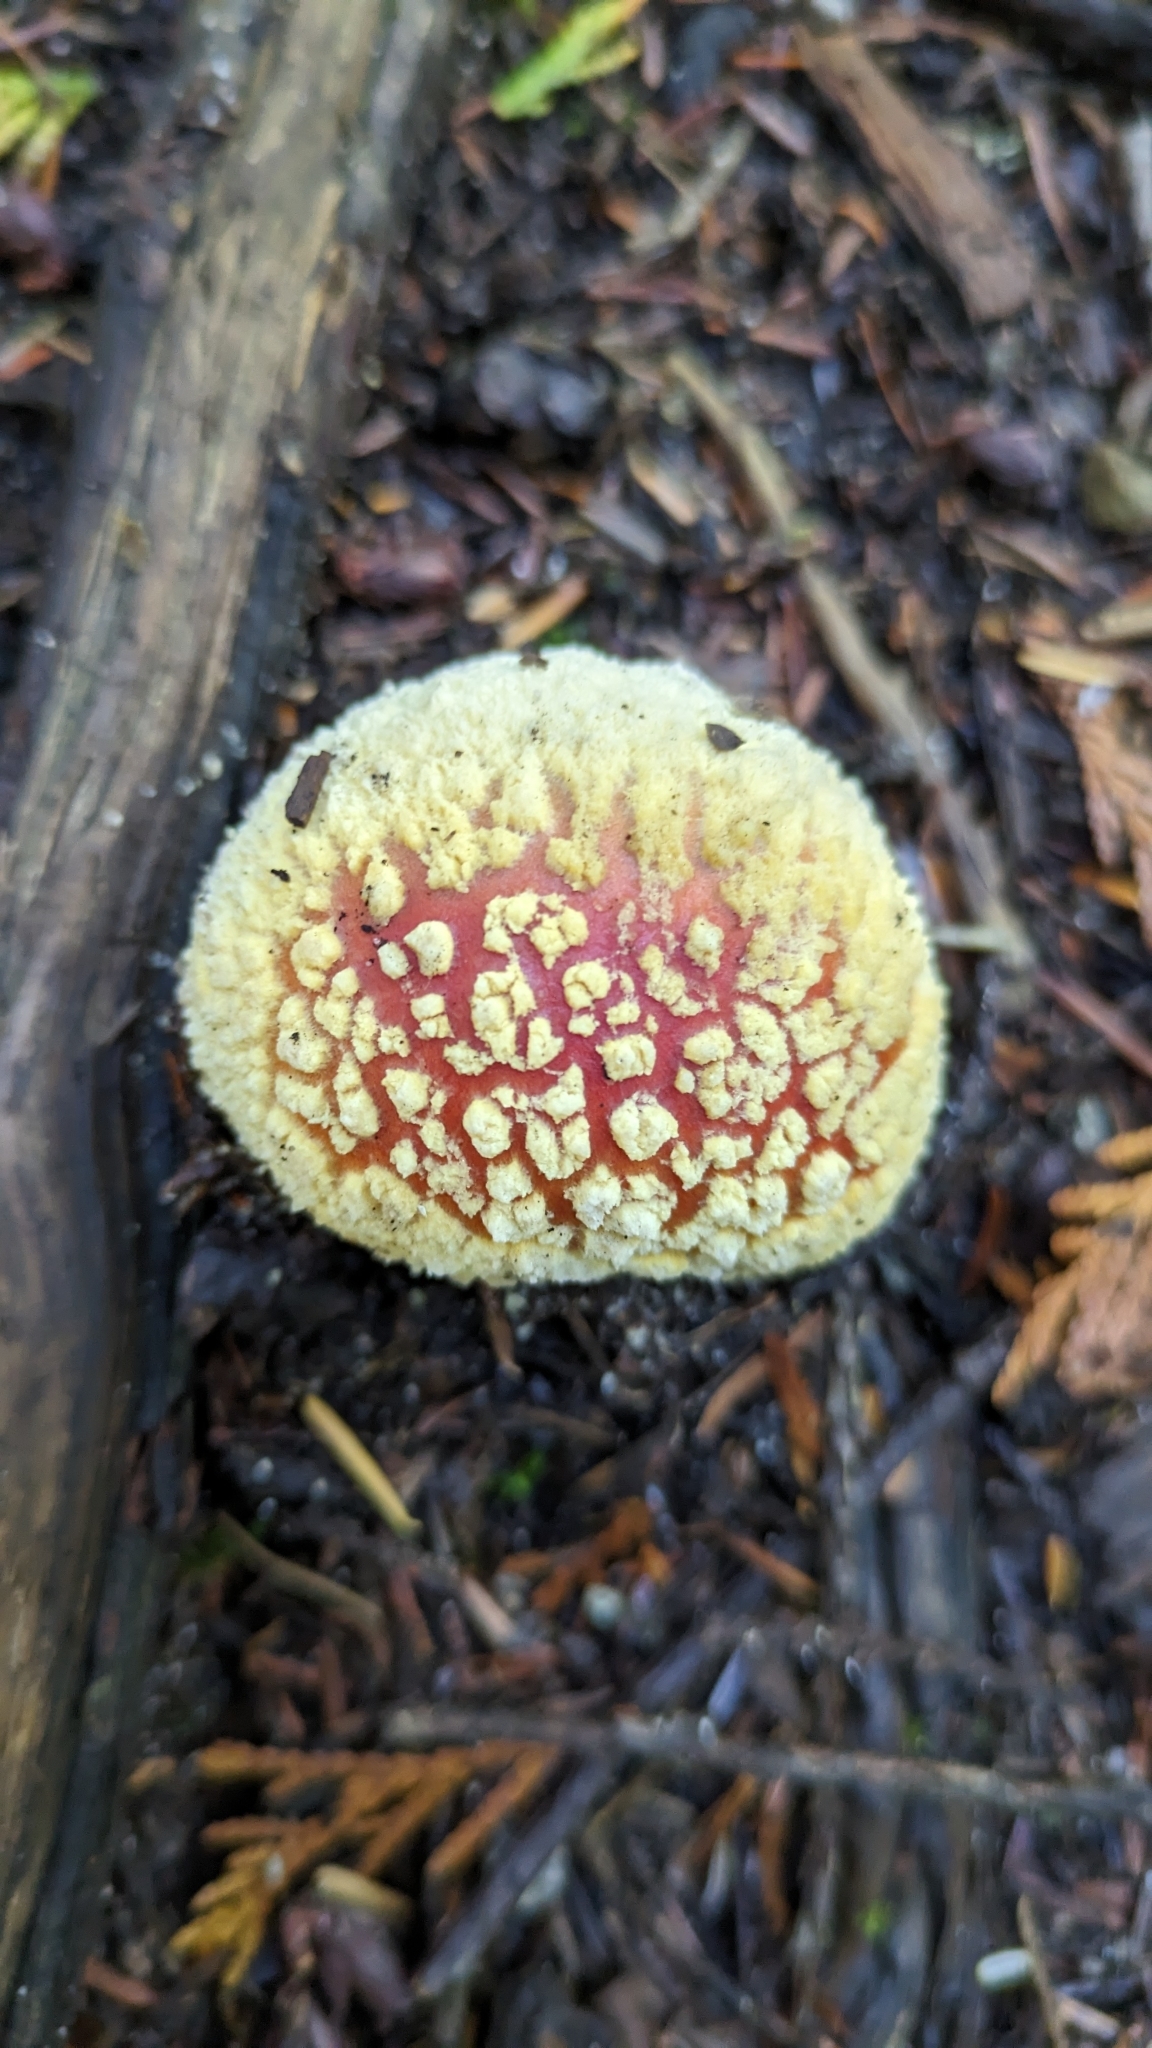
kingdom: Fungi
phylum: Basidiomycota
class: Agaricomycetes
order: Agaricales
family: Amanitaceae
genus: Amanita
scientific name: Amanita muscaria
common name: Fly agaric
